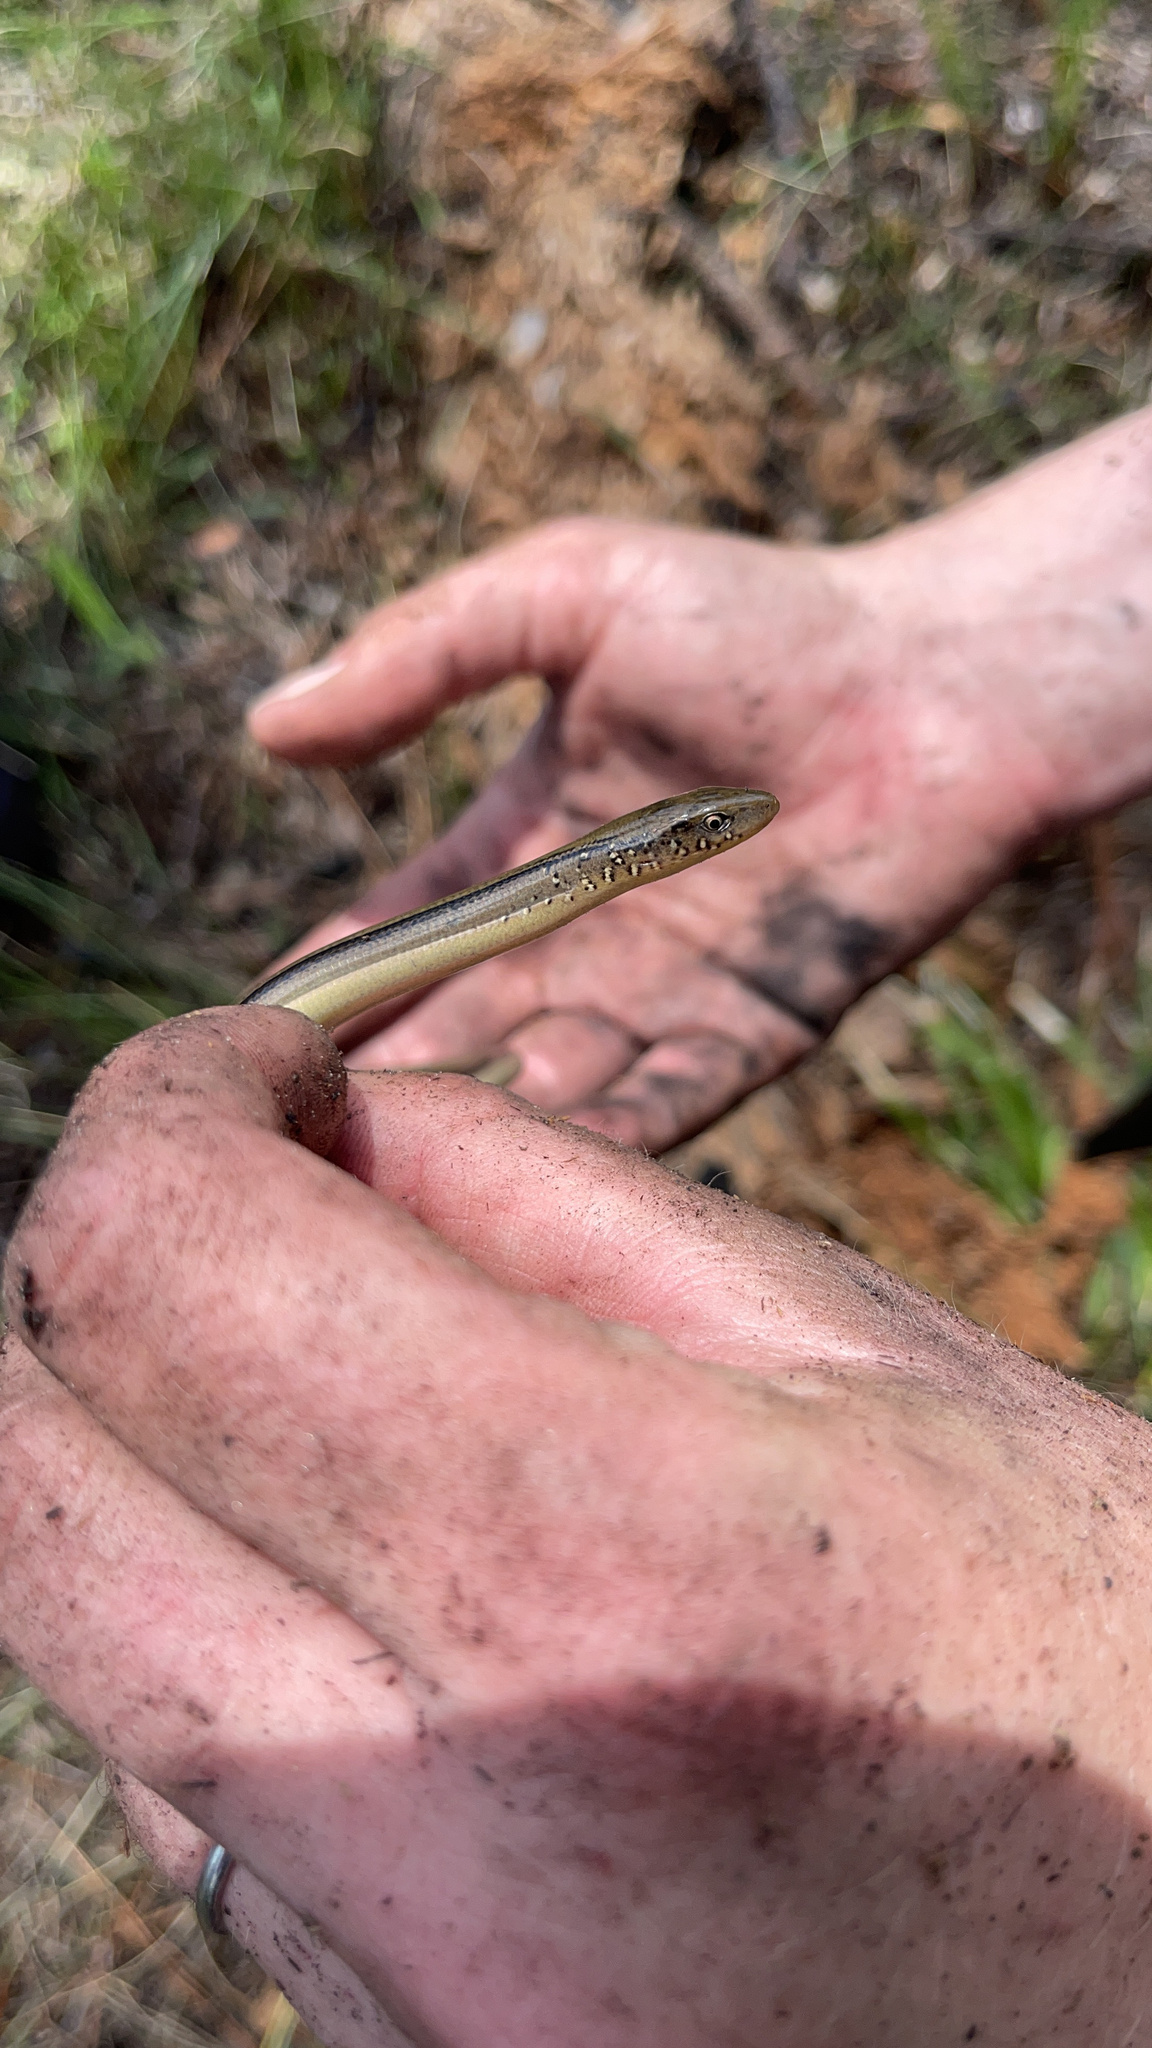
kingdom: Animalia
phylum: Chordata
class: Squamata
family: Anguidae
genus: Ophisaurus
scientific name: Ophisaurus ventralis
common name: Eastern glass lizard
